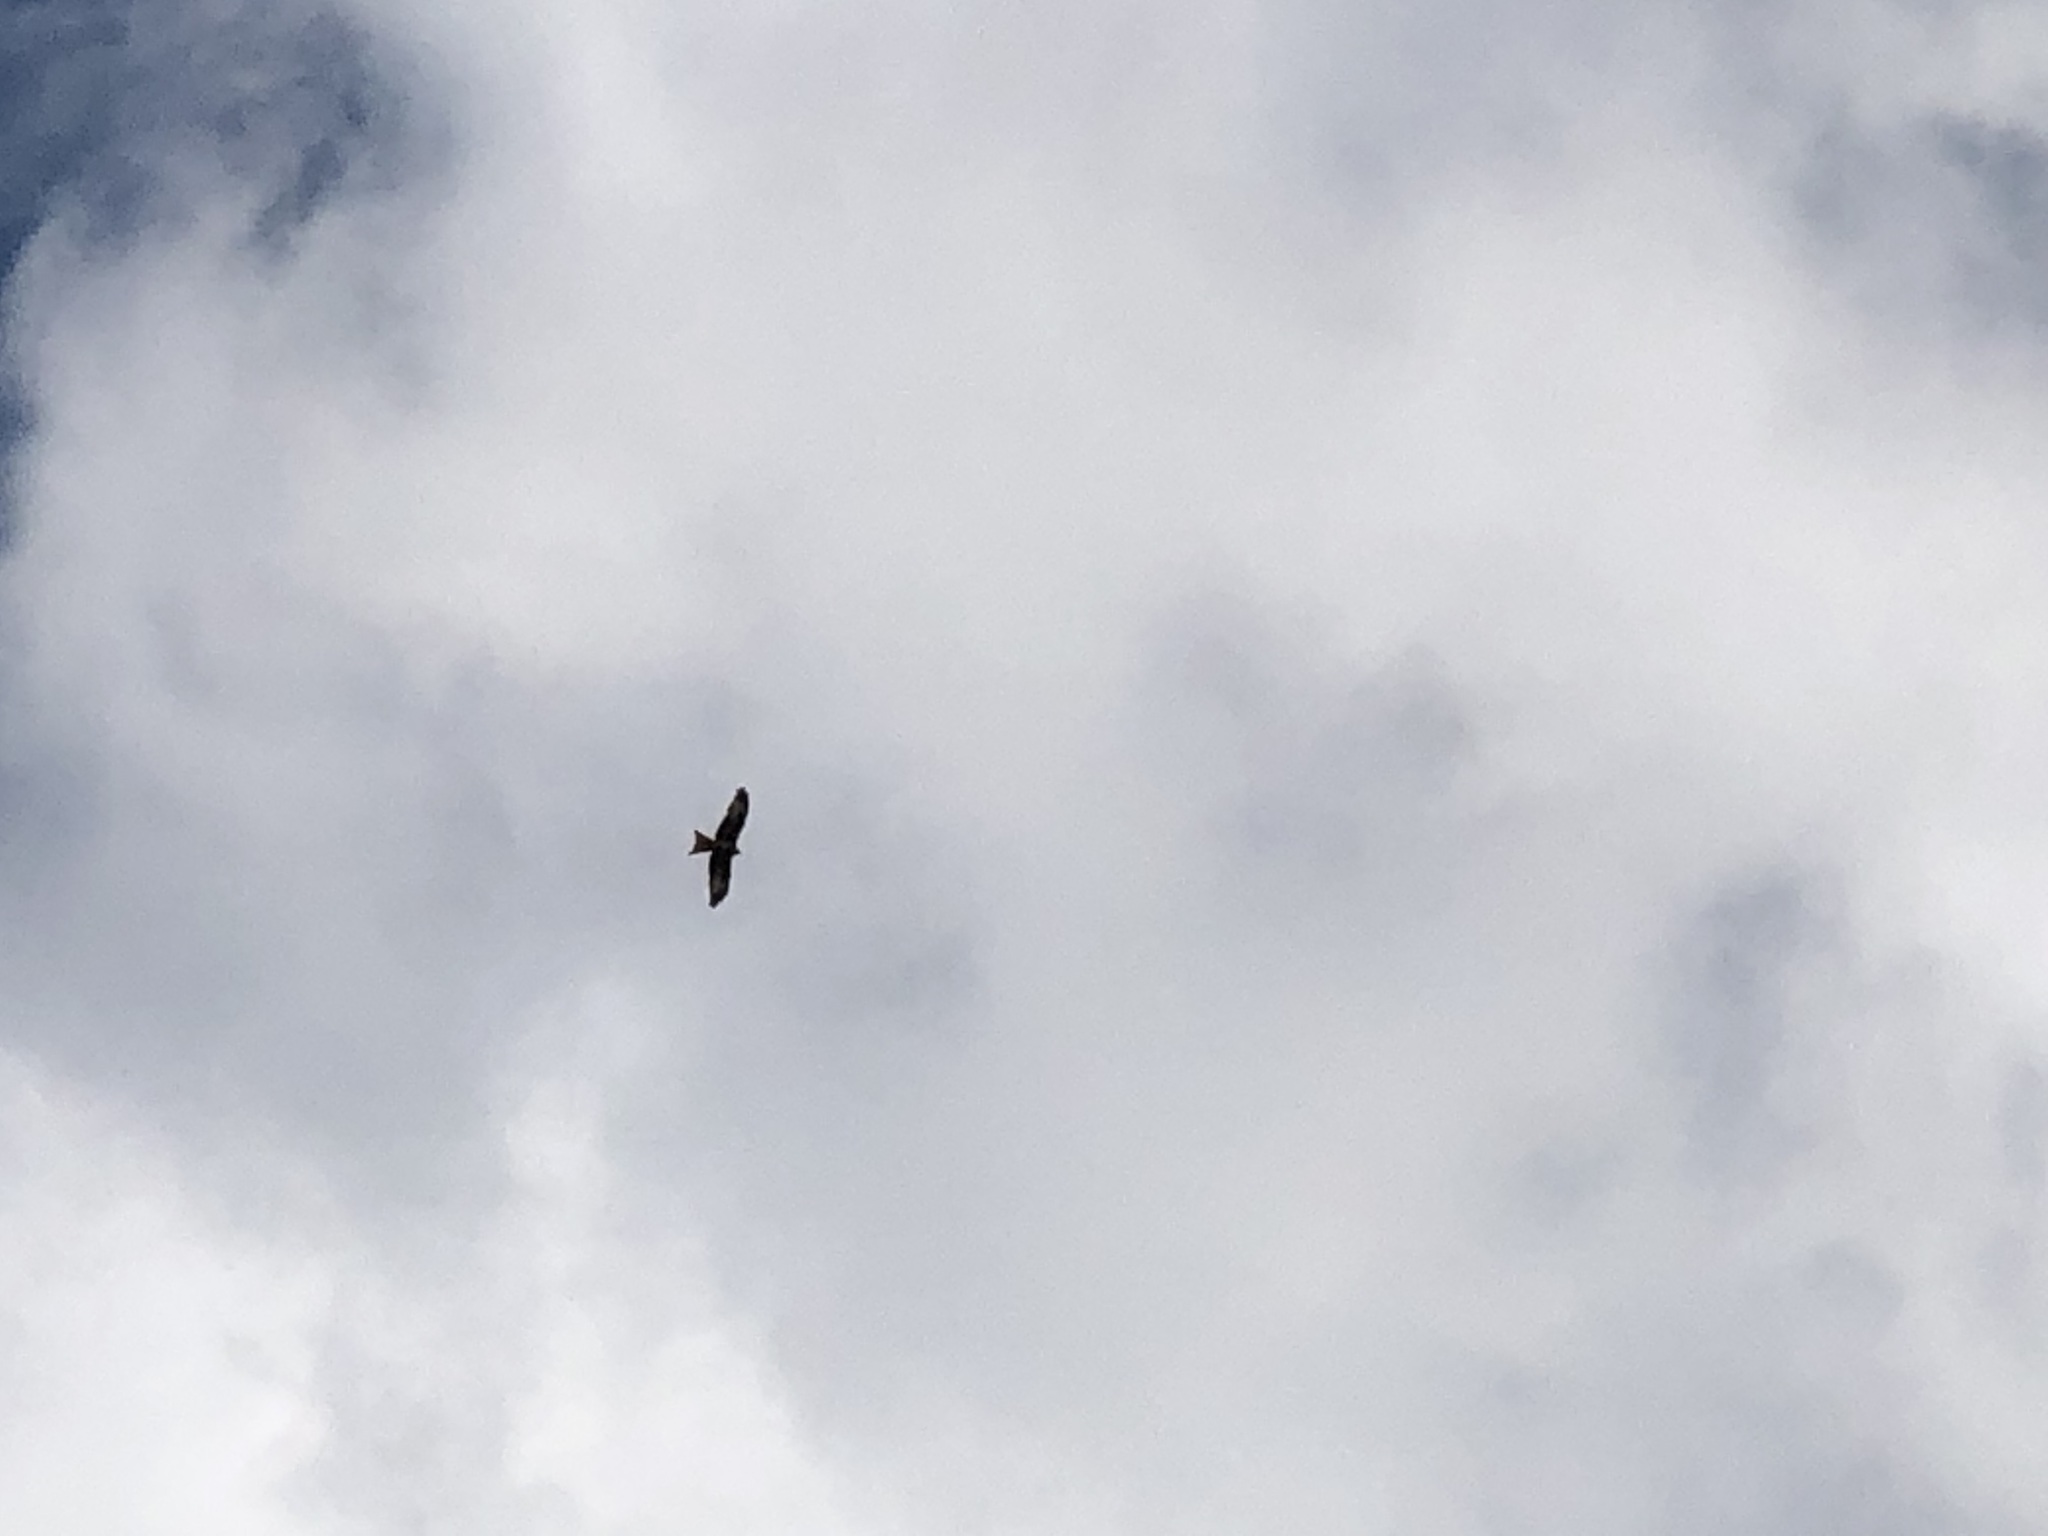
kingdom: Animalia
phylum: Chordata
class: Aves
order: Accipitriformes
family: Accipitridae
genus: Milvus
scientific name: Milvus milvus
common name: Red kite
